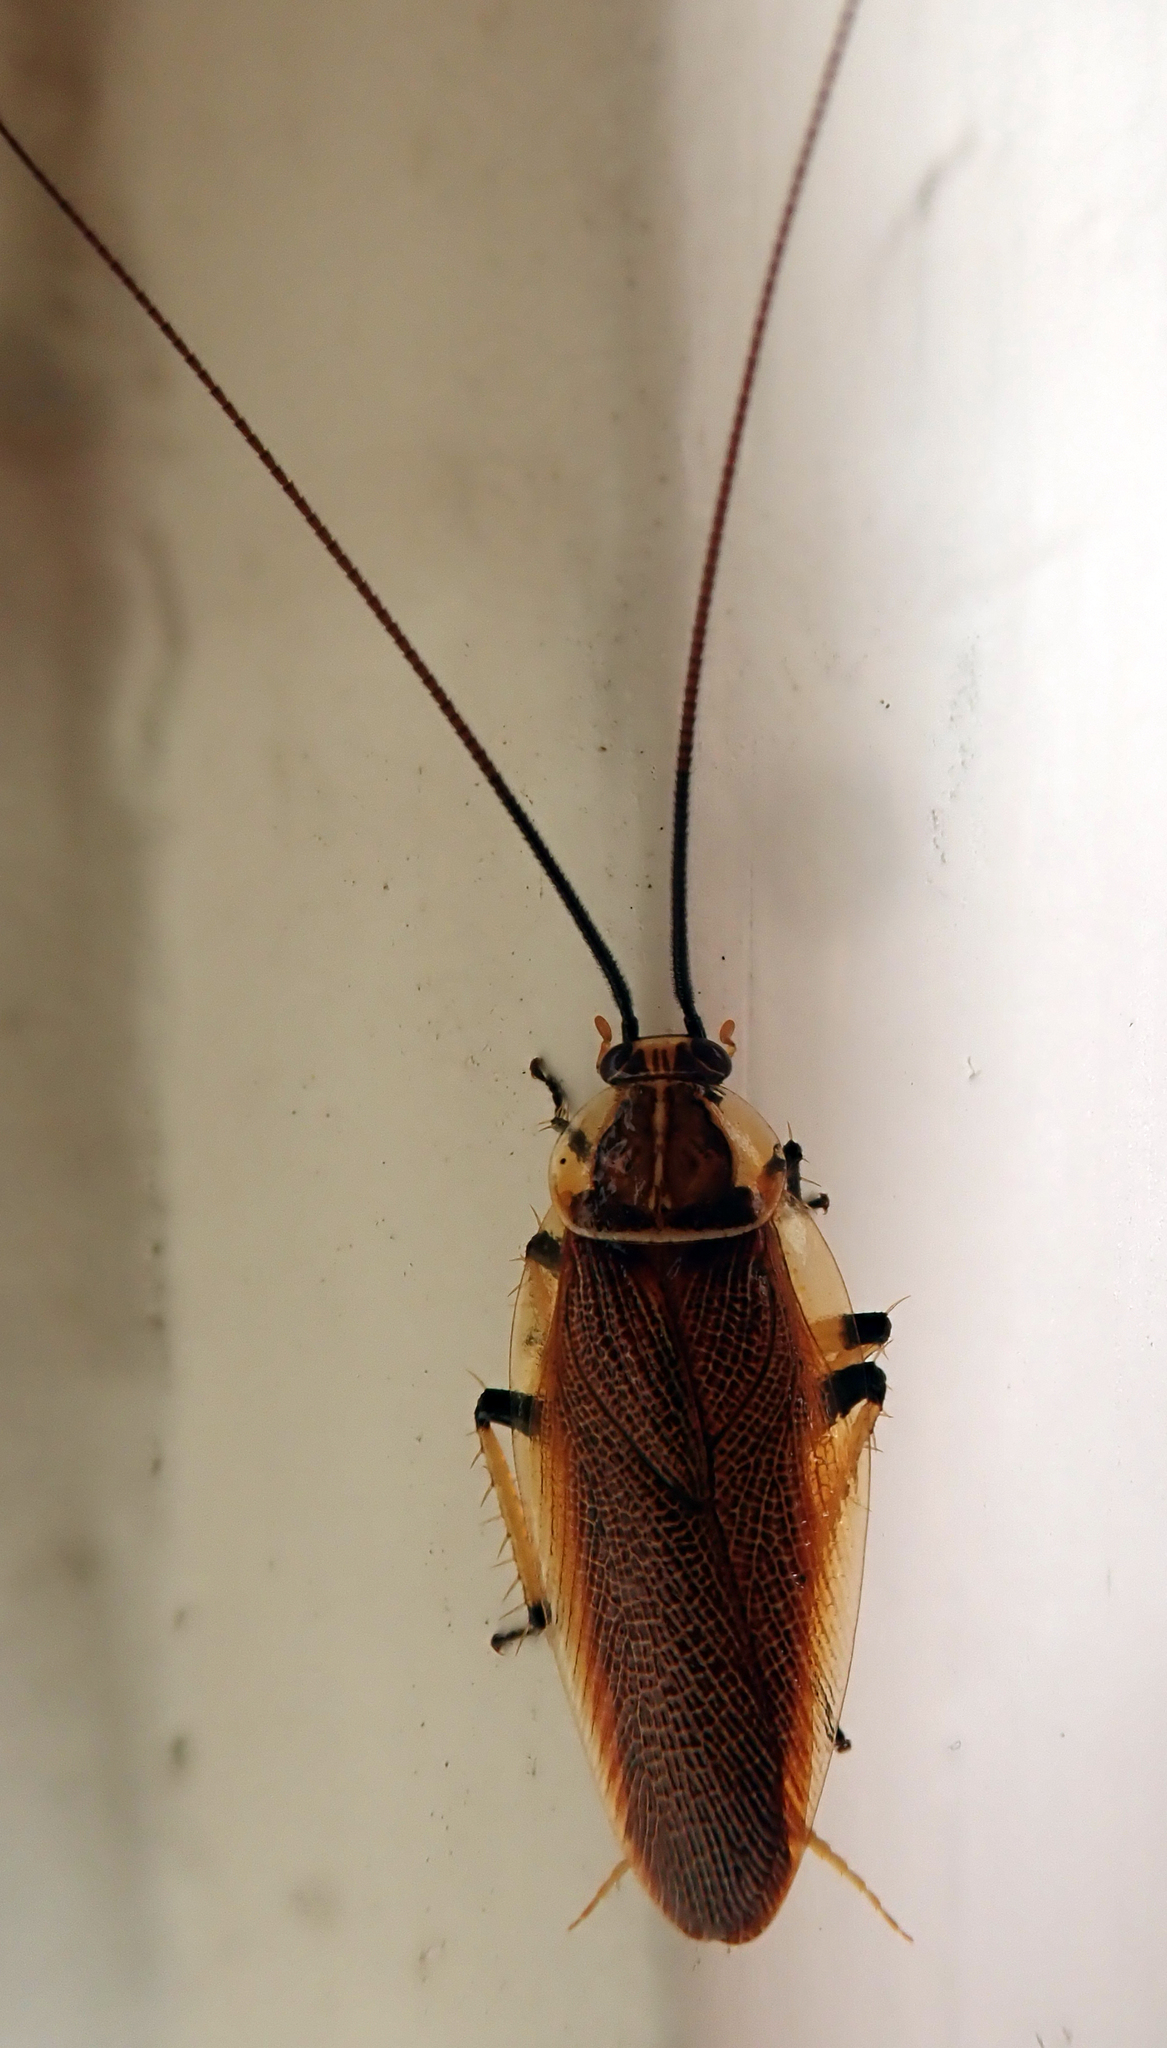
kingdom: Animalia
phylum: Arthropoda
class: Insecta
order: Blattodea
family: Ectobiidae
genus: Balta
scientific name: Balta bicolor
